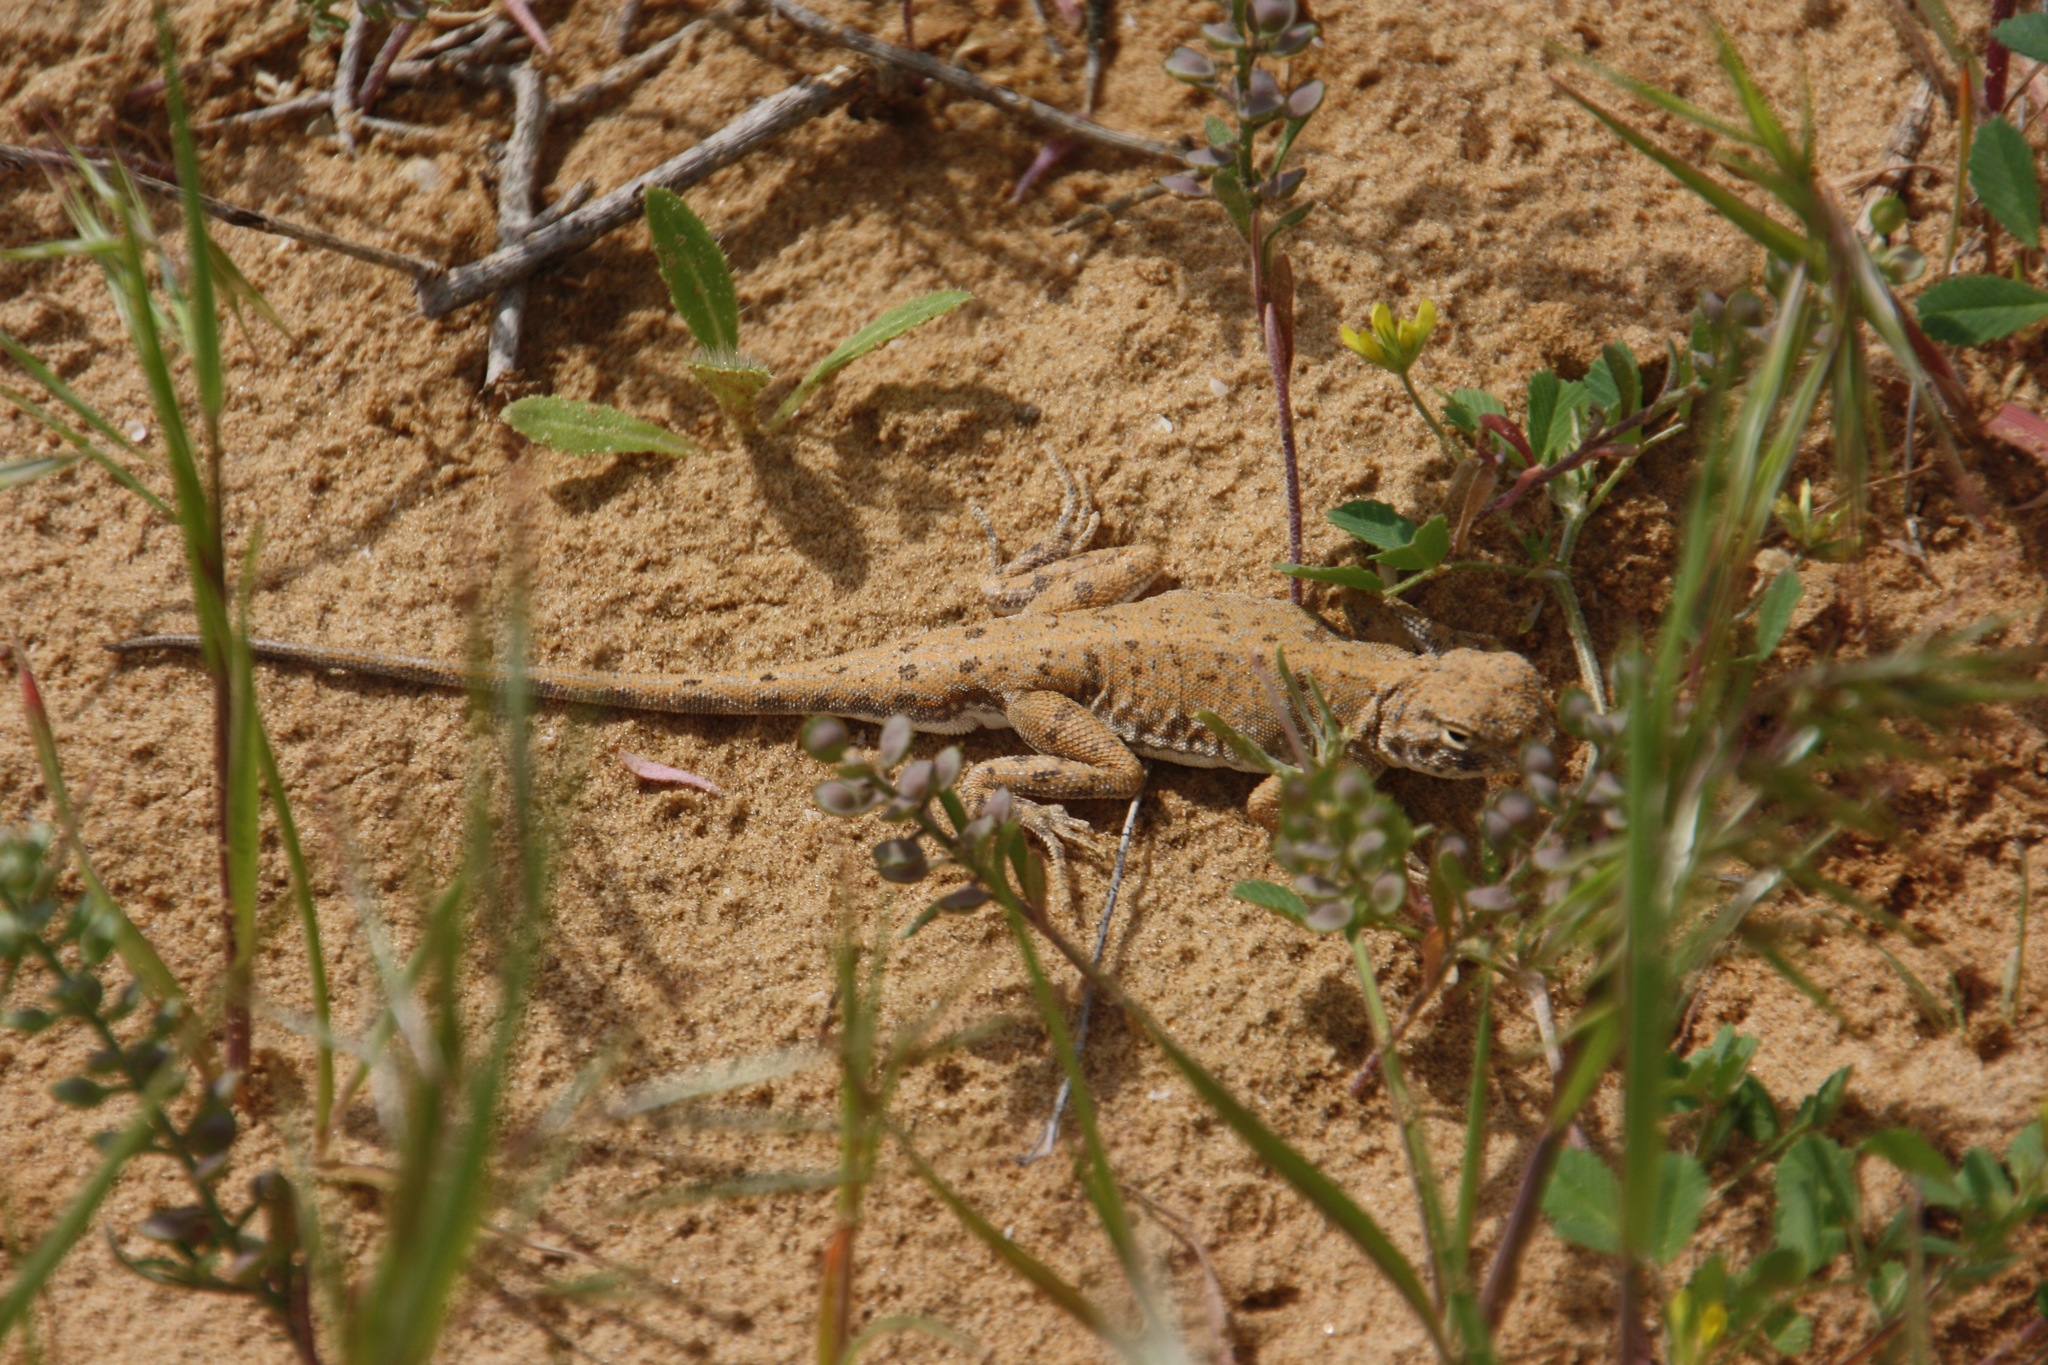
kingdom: Animalia
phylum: Chordata
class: Squamata
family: Agamidae
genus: Phrynocephalus
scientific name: Phrynocephalus guttatus
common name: Spotted toadhead agama
